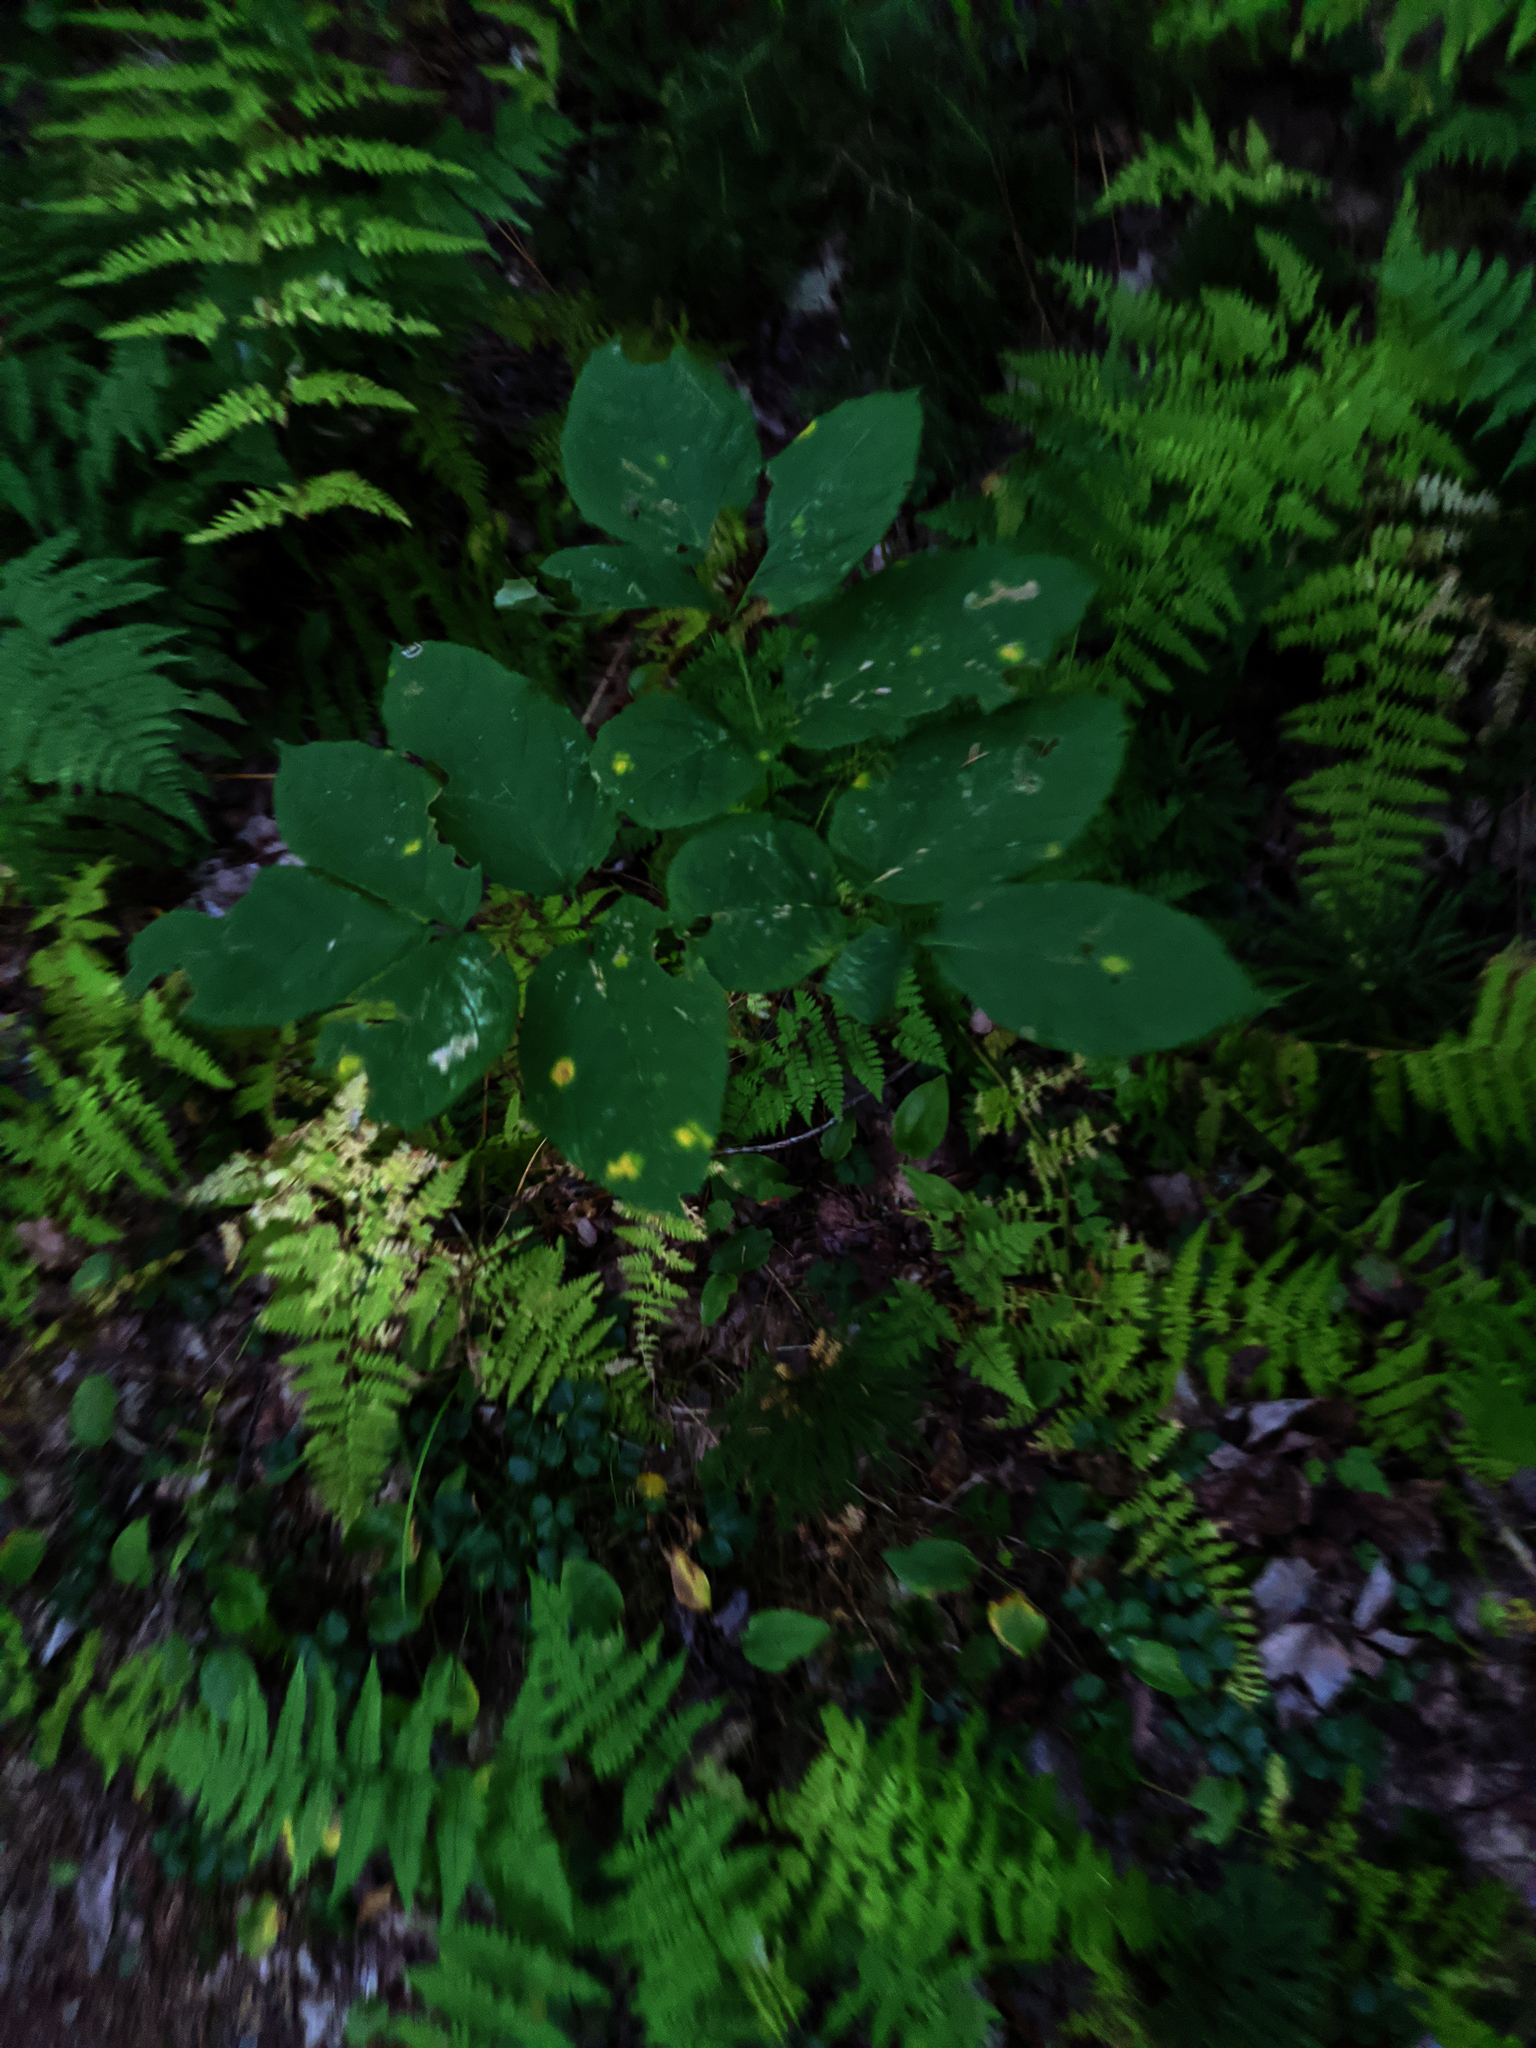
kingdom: Plantae
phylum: Tracheophyta
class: Magnoliopsida
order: Apiales
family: Araliaceae
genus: Aralia
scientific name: Aralia nudicaulis
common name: Wild sarsaparilla
